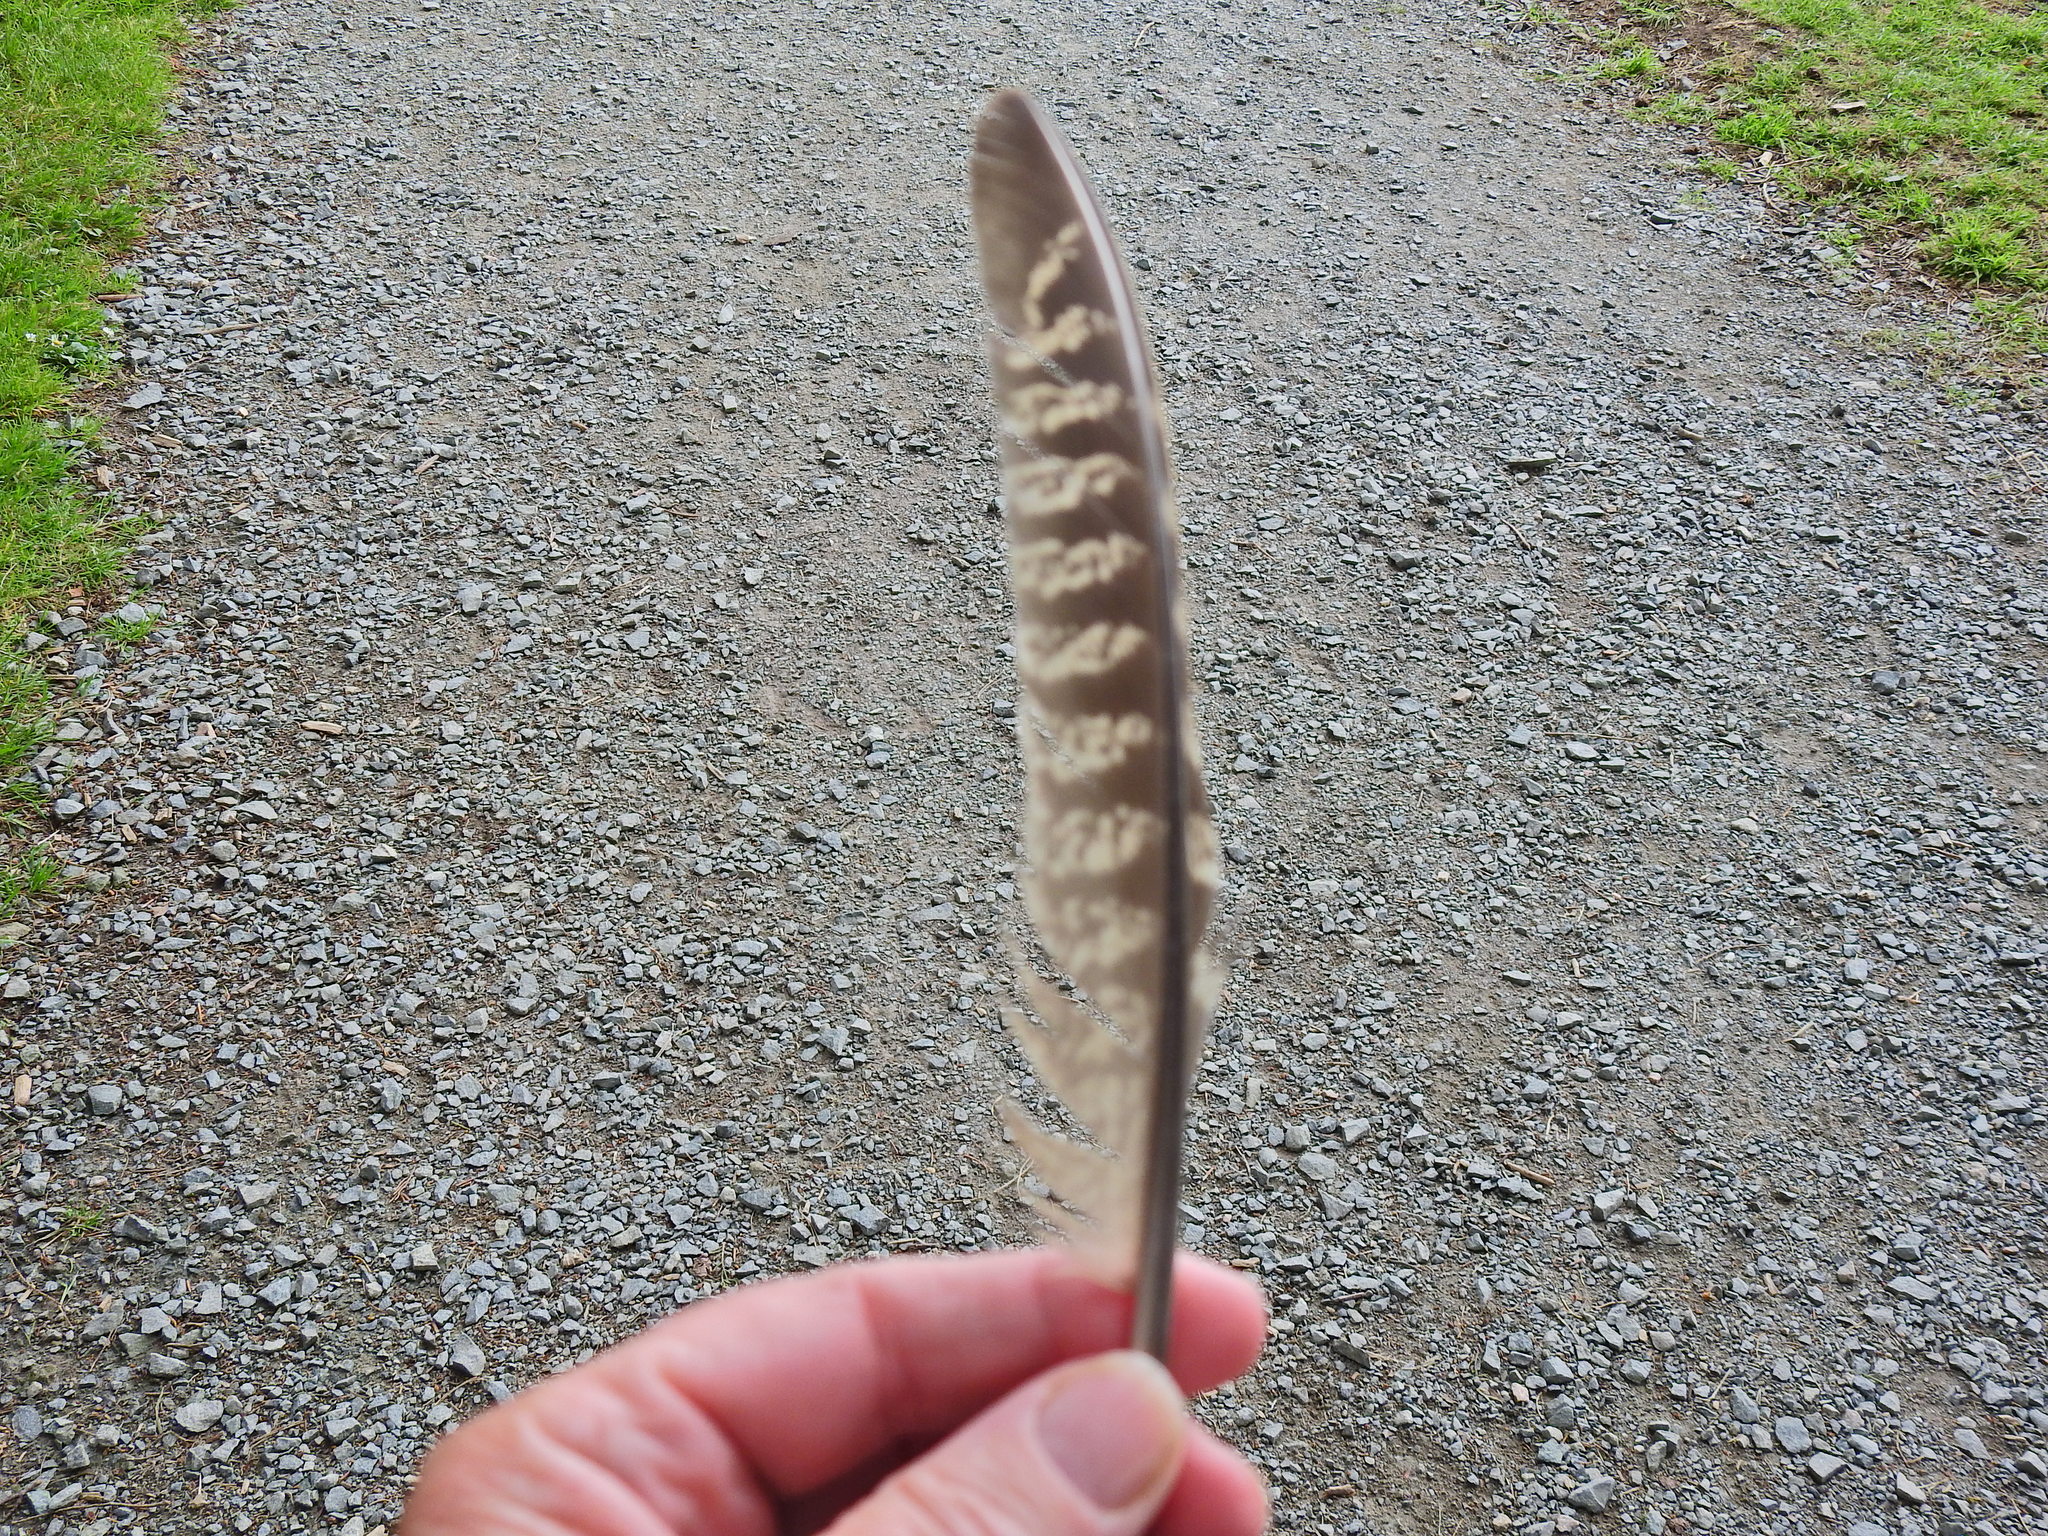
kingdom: Animalia
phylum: Chordata
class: Aves
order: Galliformes
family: Phasianidae
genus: Phasianus
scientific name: Phasianus colchicus
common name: Common pheasant
